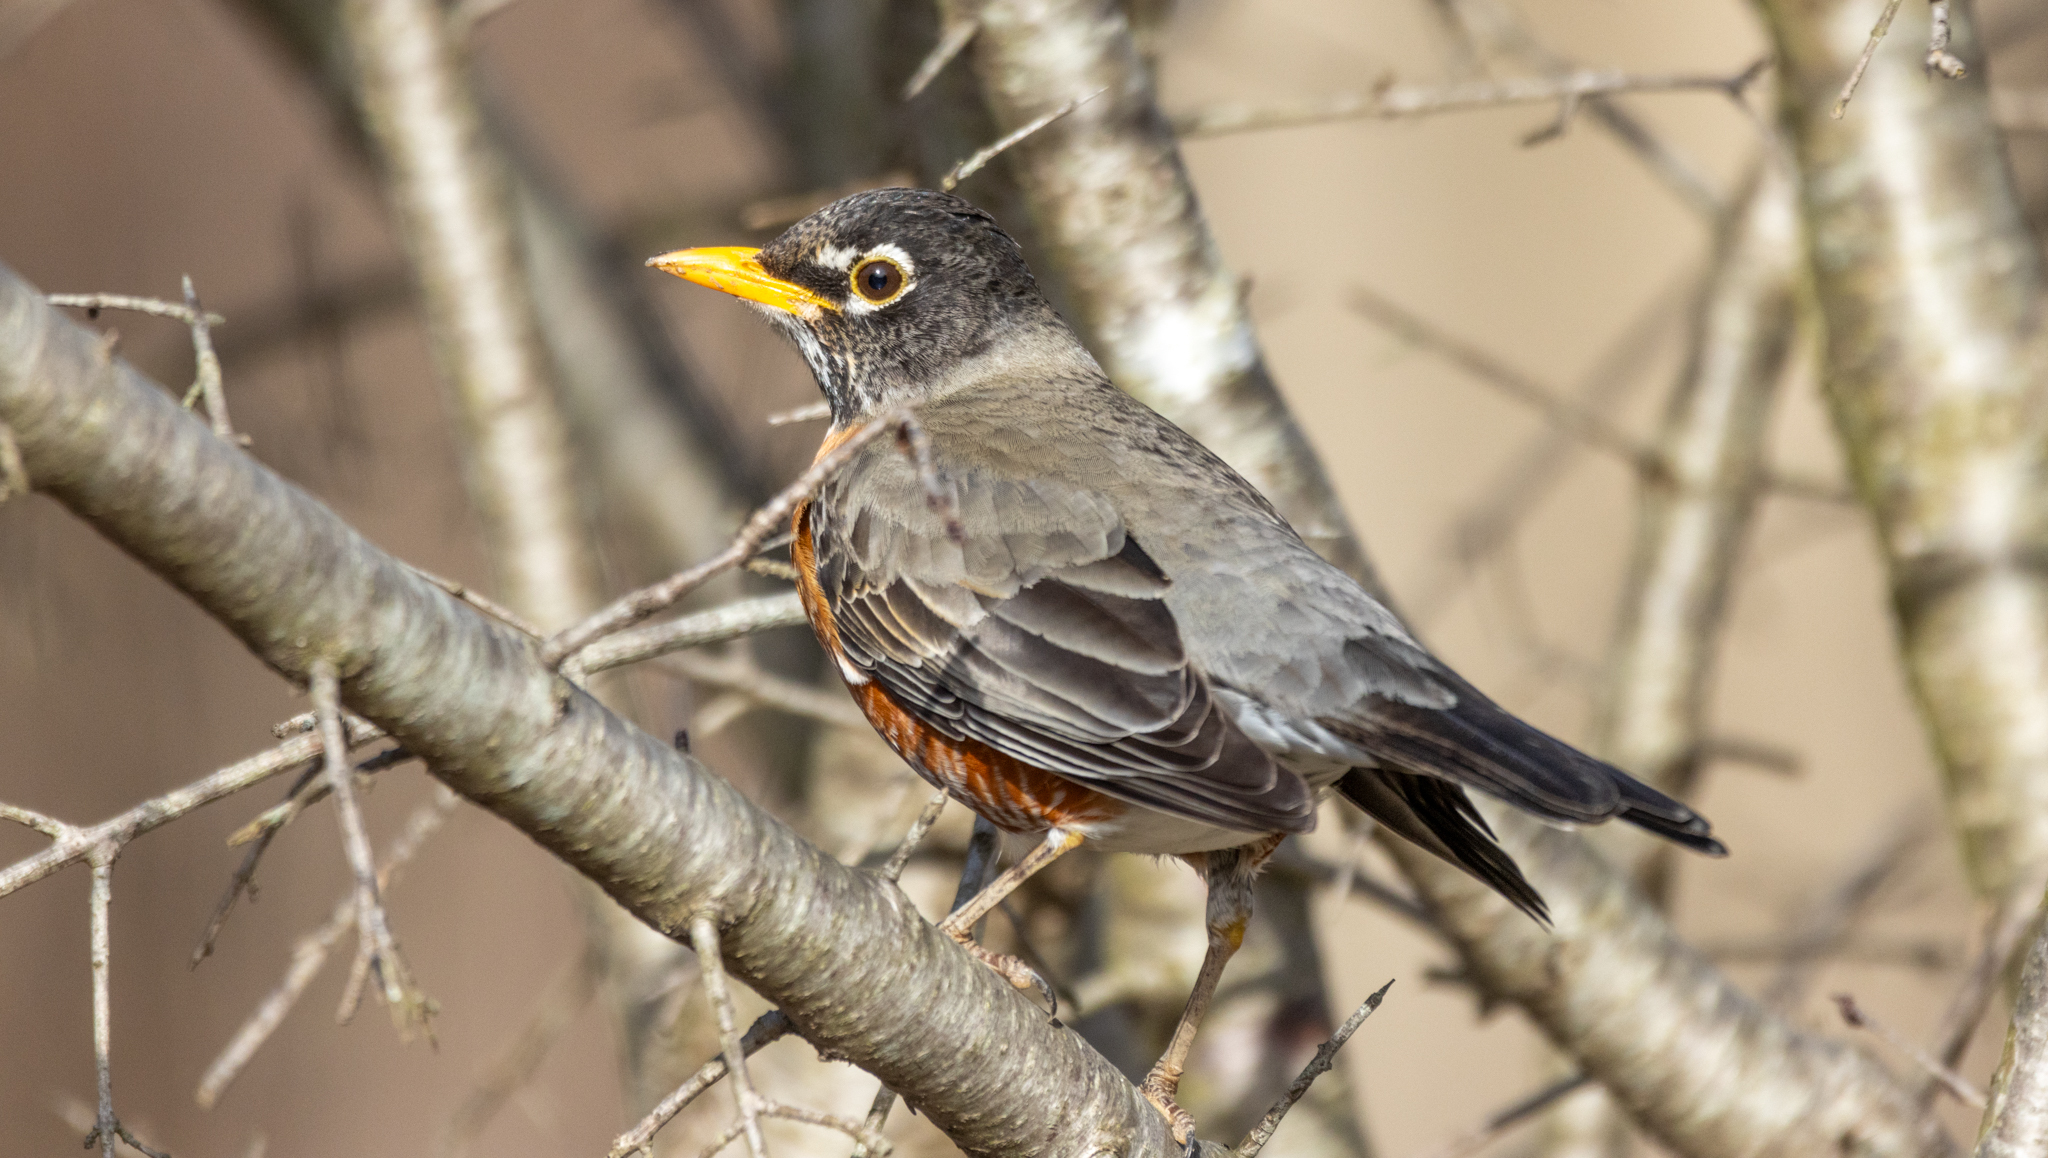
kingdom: Animalia
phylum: Chordata
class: Aves
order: Passeriformes
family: Turdidae
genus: Turdus
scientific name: Turdus migratorius
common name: American robin
